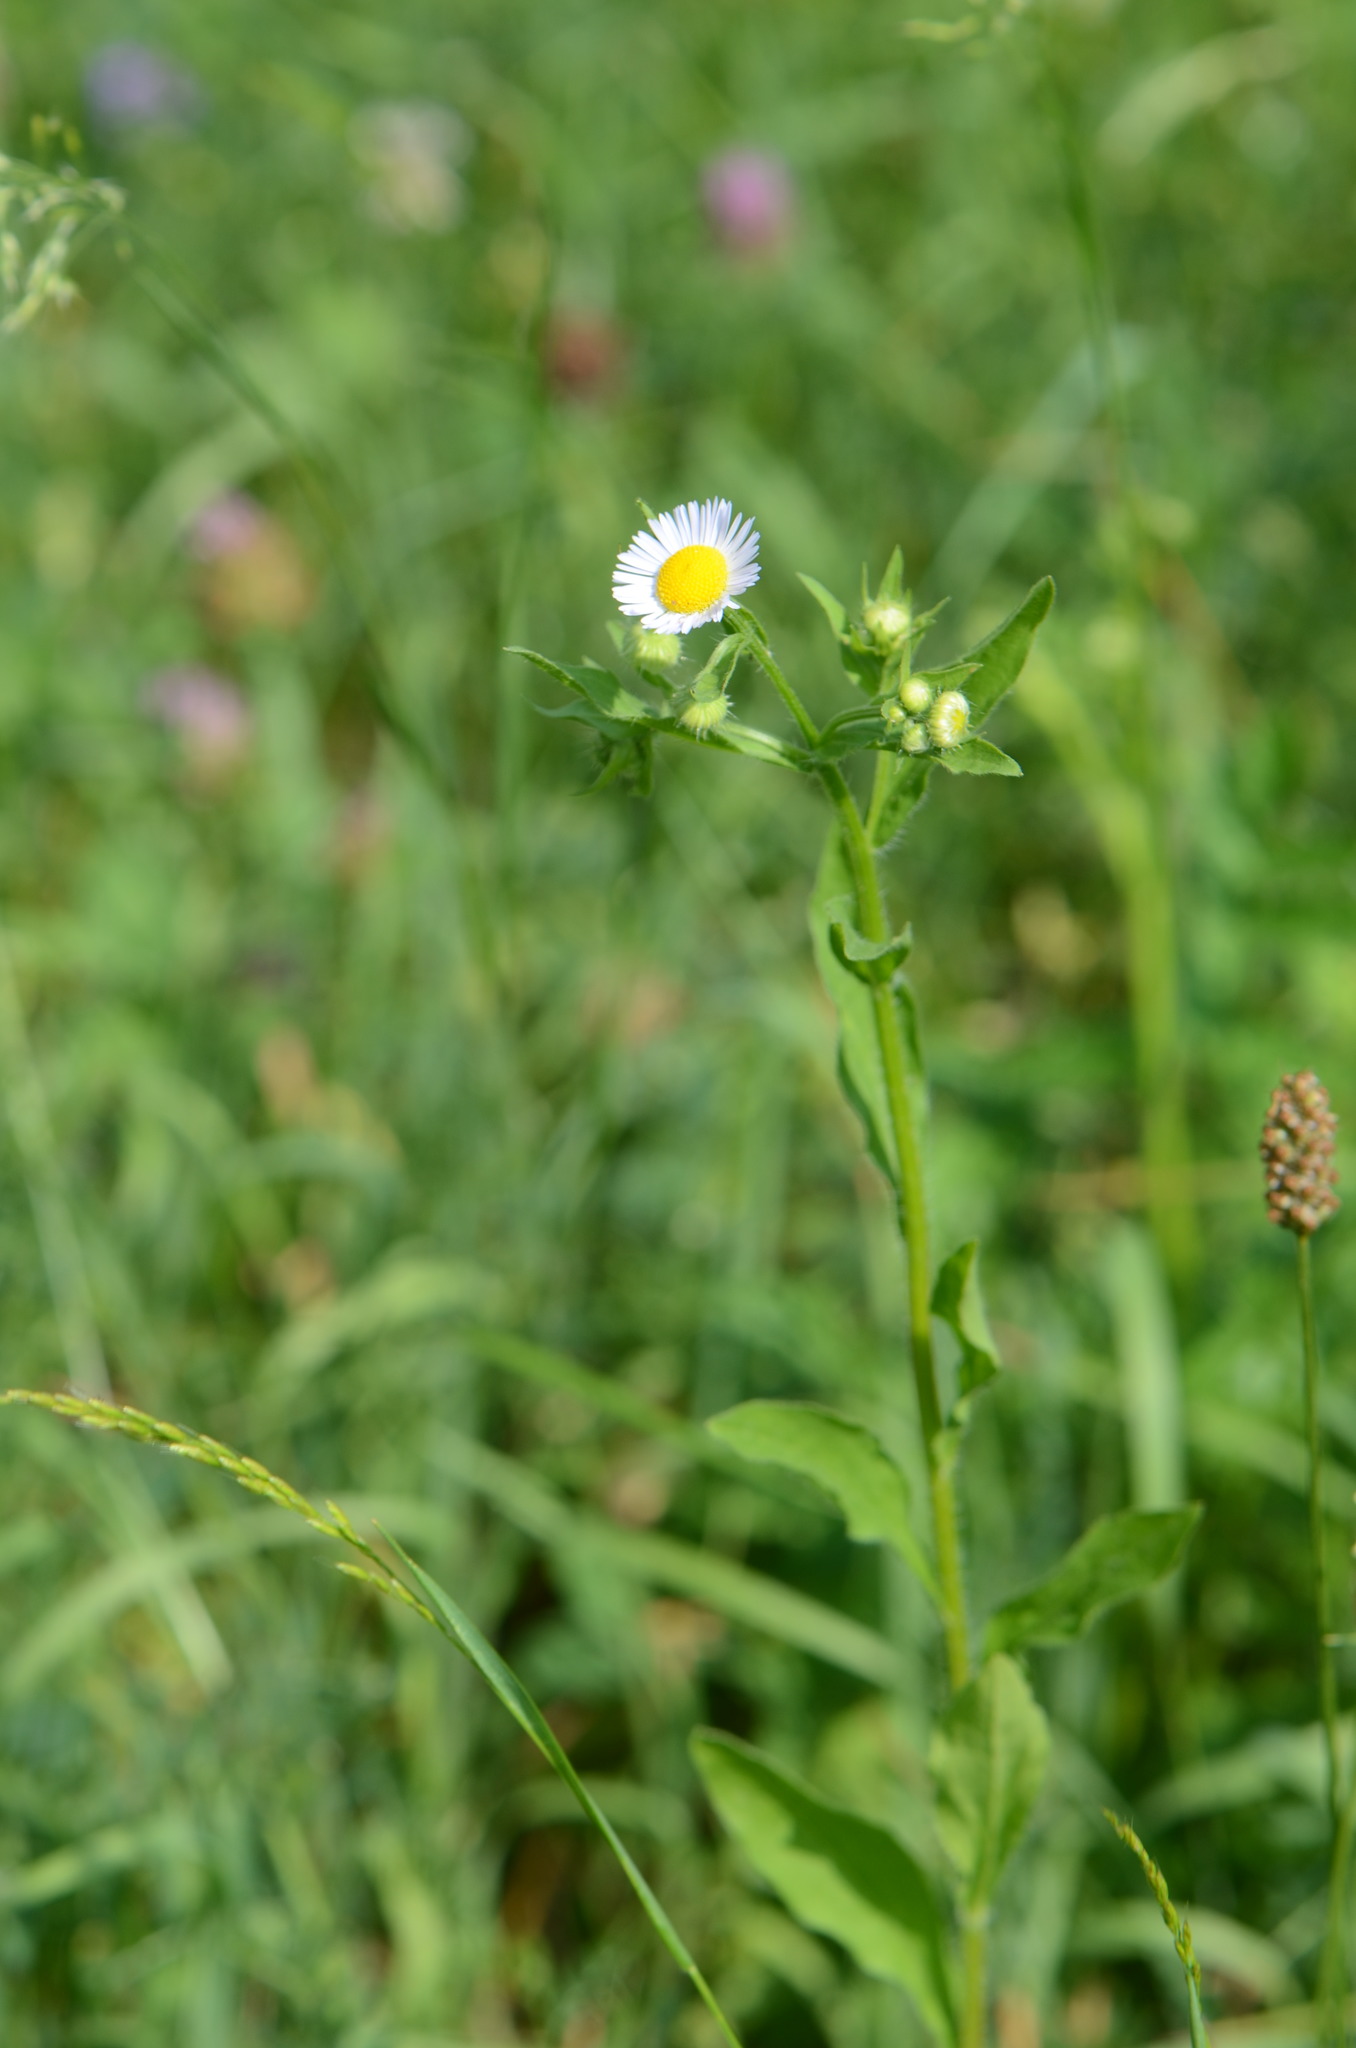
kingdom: Plantae
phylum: Tracheophyta
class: Magnoliopsida
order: Asterales
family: Asteraceae
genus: Erigeron
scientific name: Erigeron annuus
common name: Tall fleabane
